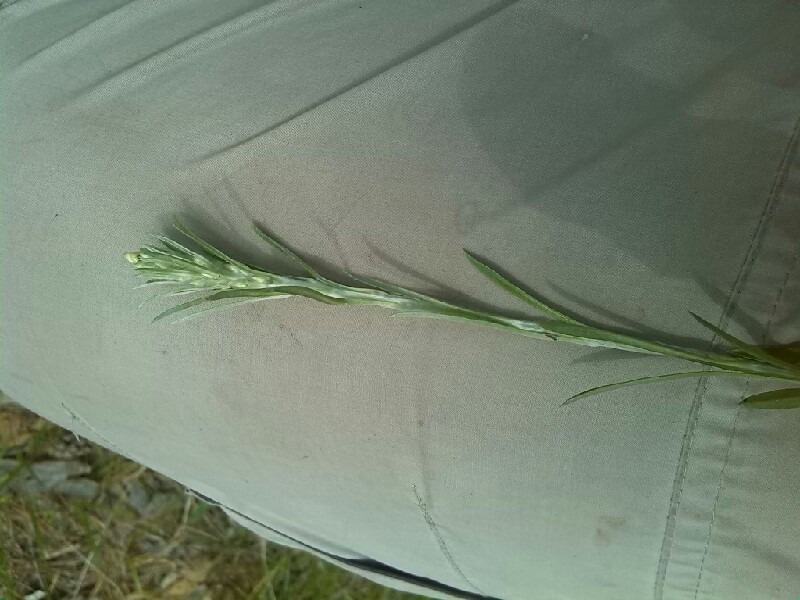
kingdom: Plantae
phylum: Tracheophyta
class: Magnoliopsida
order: Asterales
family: Asteraceae
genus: Omalotheca
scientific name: Omalotheca sylvatica
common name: Heath cudweed
